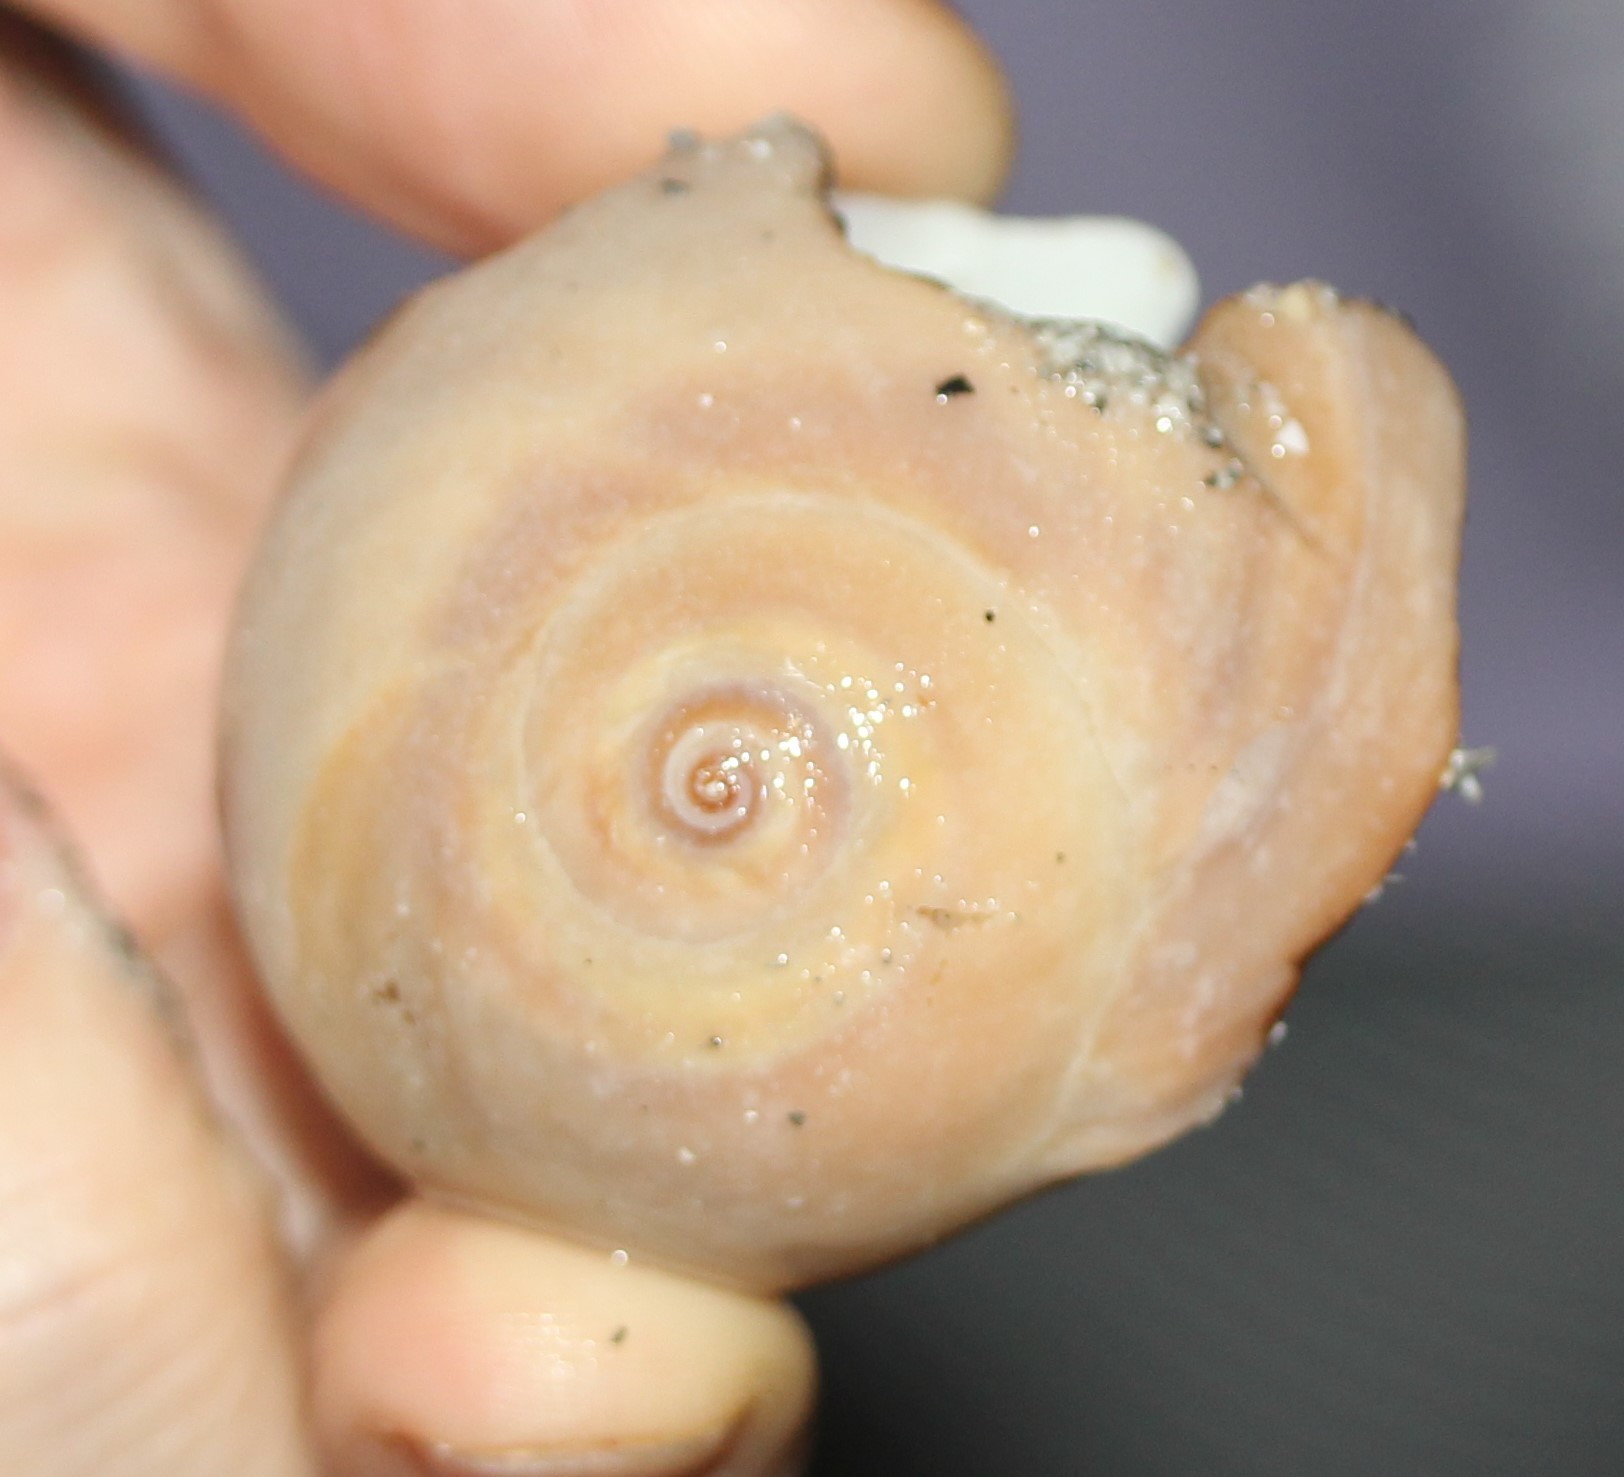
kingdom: Animalia
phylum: Mollusca
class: Gastropoda
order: Littorinimorpha
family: Naticidae
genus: Neverita
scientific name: Neverita duplicata
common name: Lobed moonsnail
